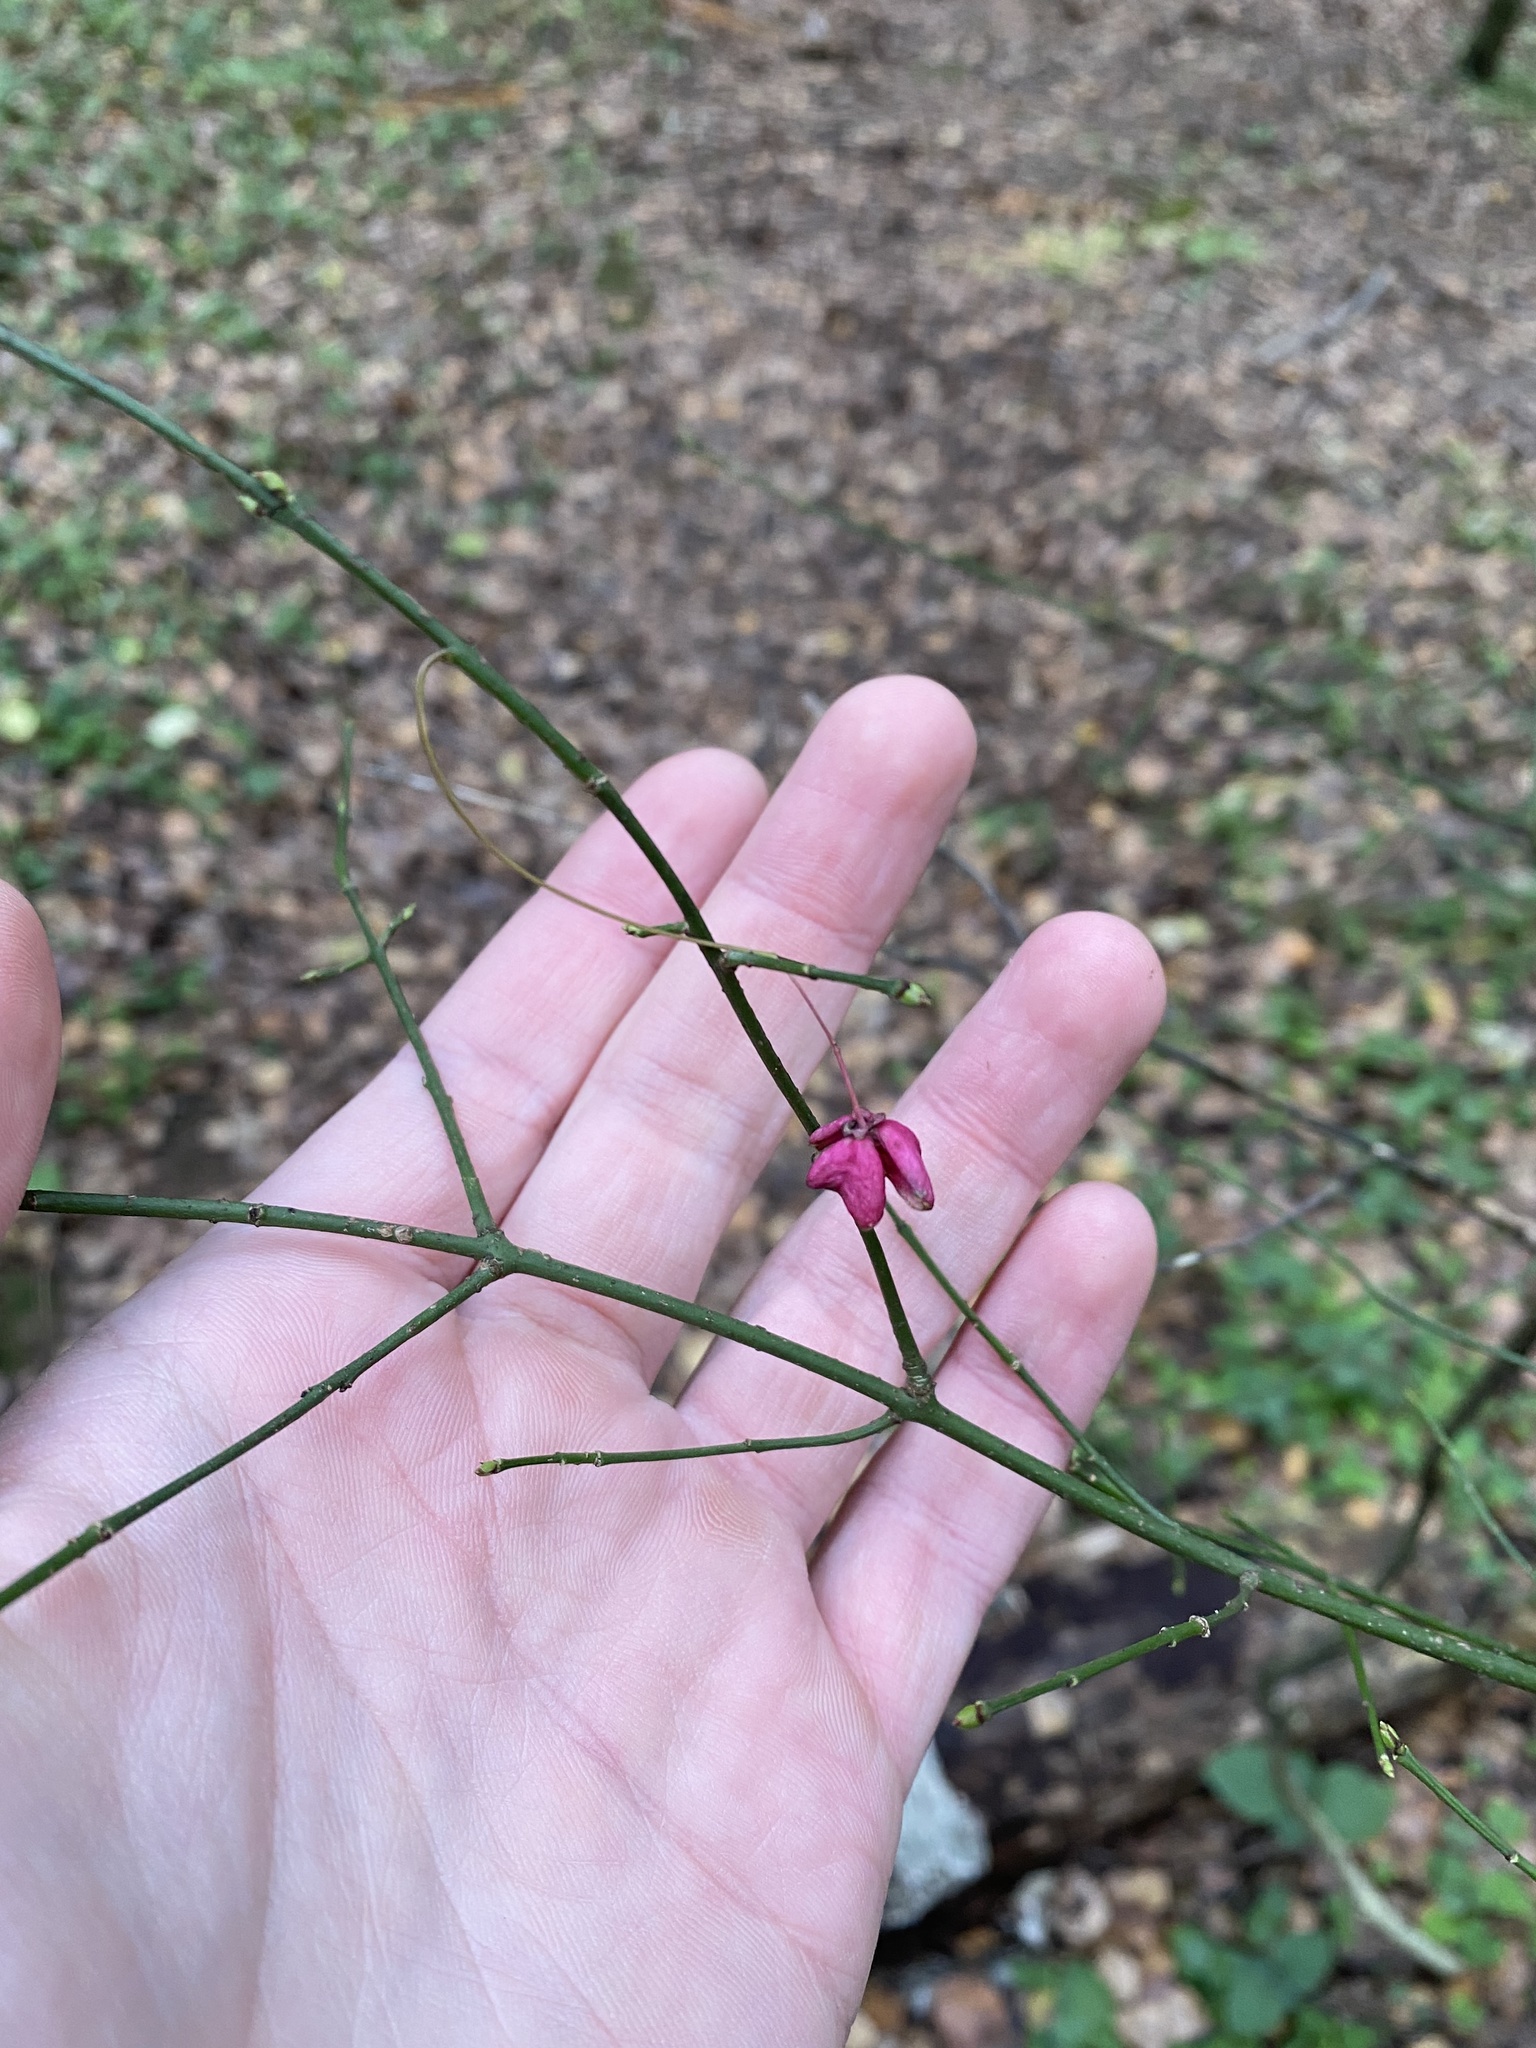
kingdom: Plantae
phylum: Tracheophyta
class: Magnoliopsida
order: Celastrales
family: Celastraceae
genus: Euonymus
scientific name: Euonymus europaeus
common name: Spindle
